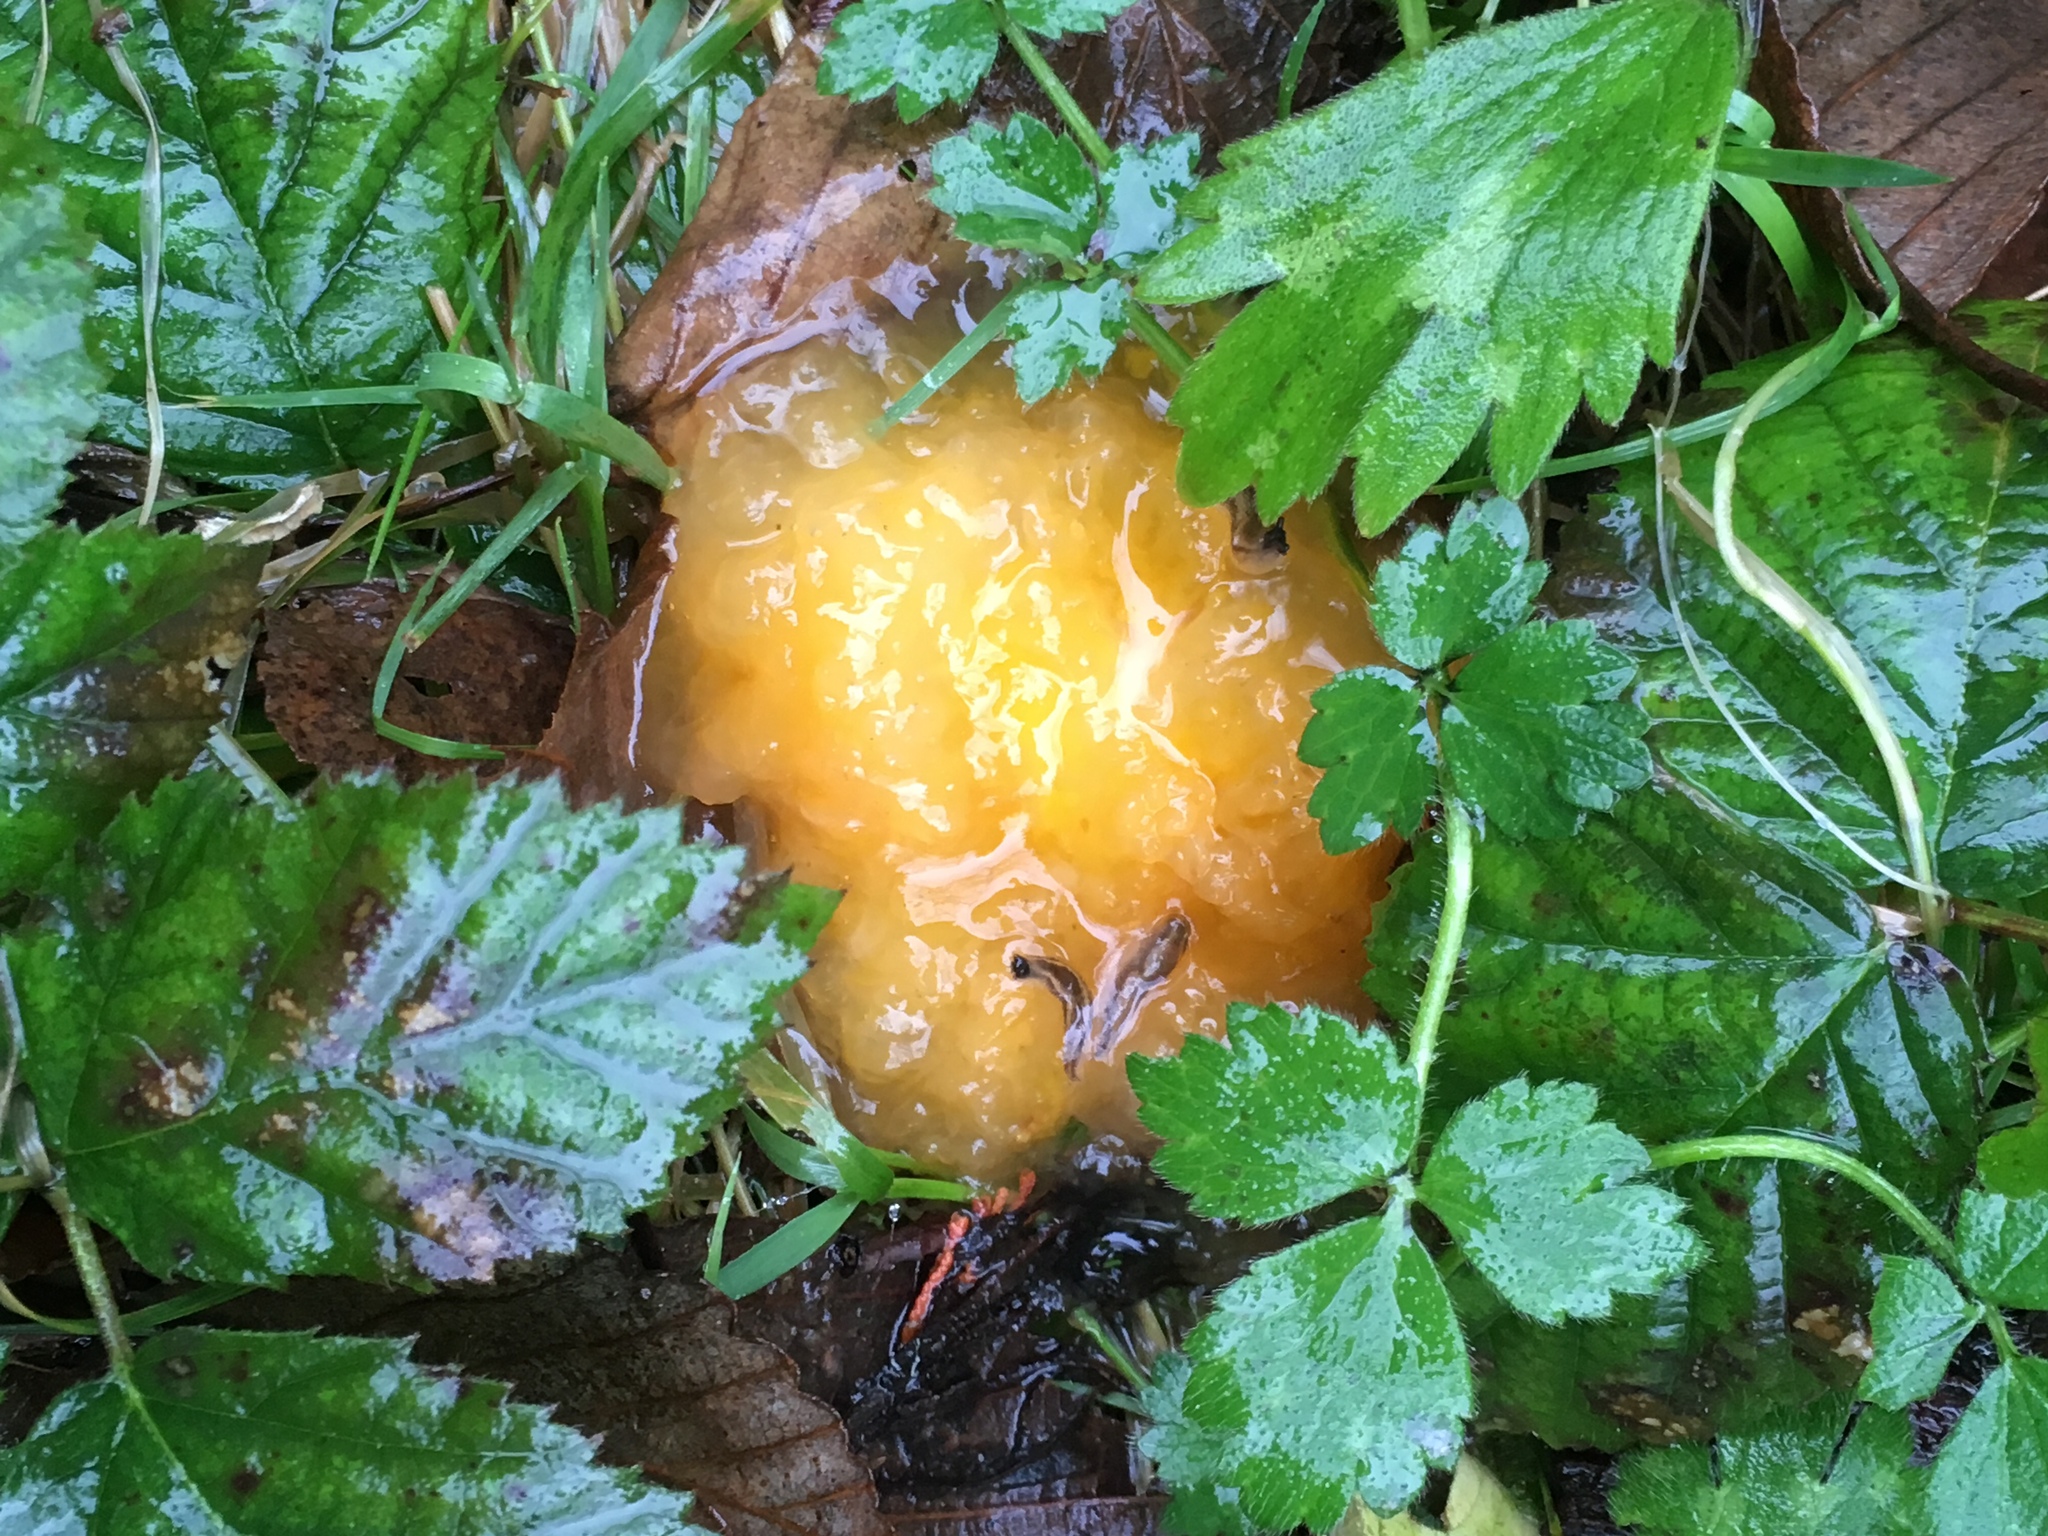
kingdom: Fungi
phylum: Basidiomycota
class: Tremellomycetes
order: Tremellales
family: Naemateliaceae
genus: Naematelia
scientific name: Naematelia aurantia
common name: Golden ear
